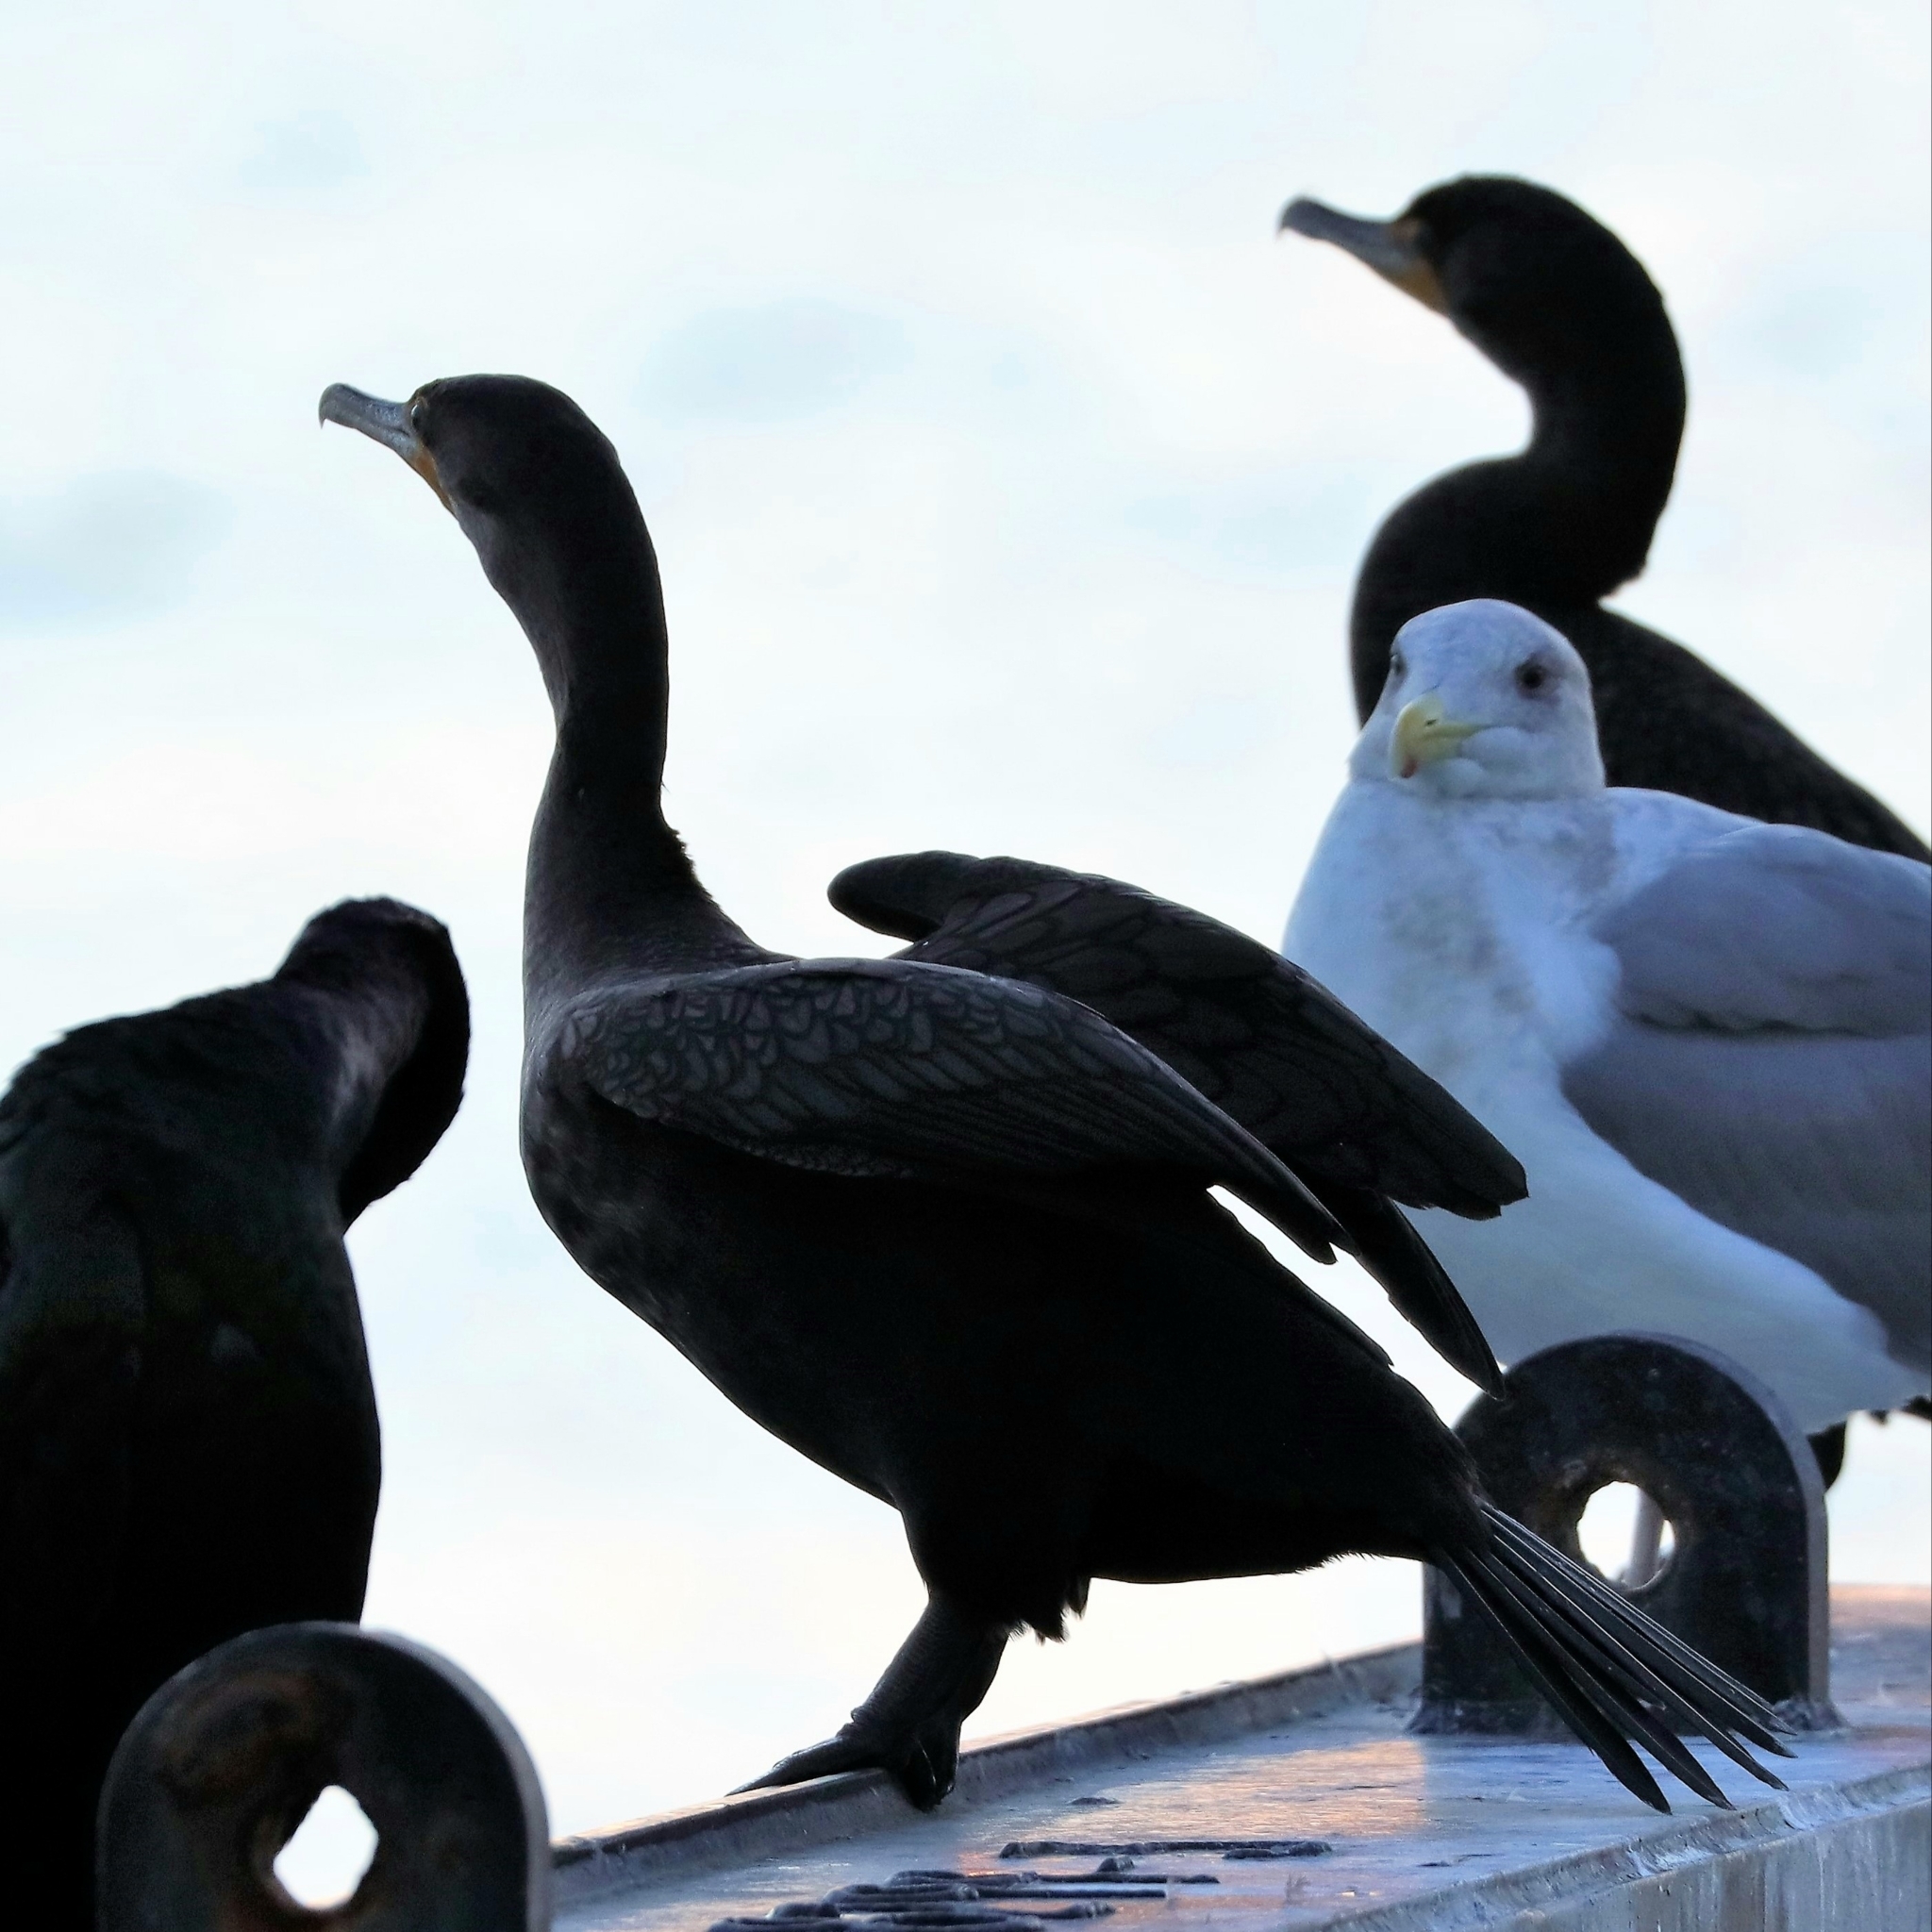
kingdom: Animalia
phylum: Chordata
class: Aves
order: Suliformes
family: Phalacrocoracidae
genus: Phalacrocorax
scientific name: Phalacrocorax auritus
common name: Double-crested cormorant
